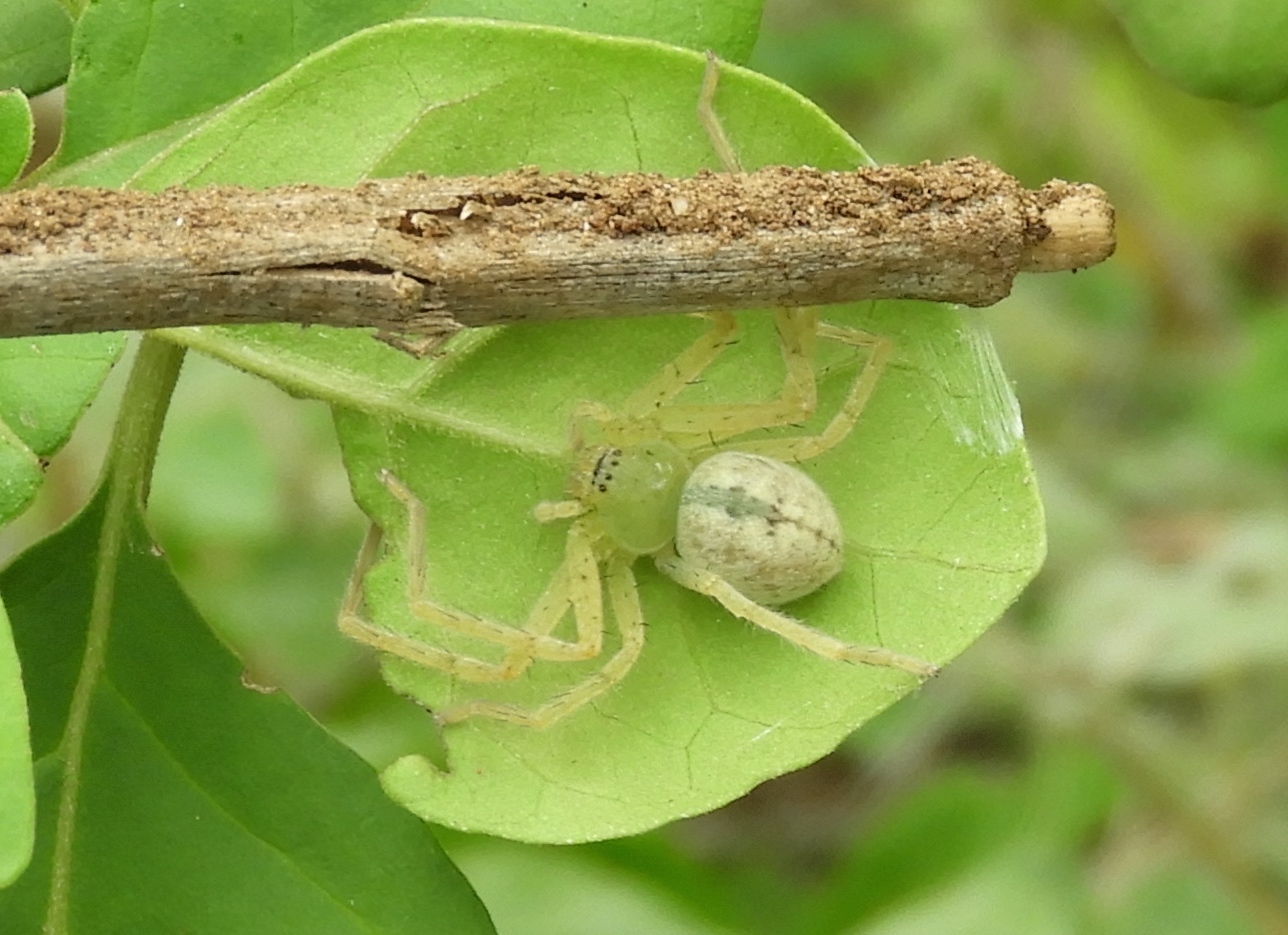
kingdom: Animalia
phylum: Arthropoda
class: Arachnida
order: Araneae
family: Sparassidae
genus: Curicaberis
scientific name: Curicaberis culiacan
